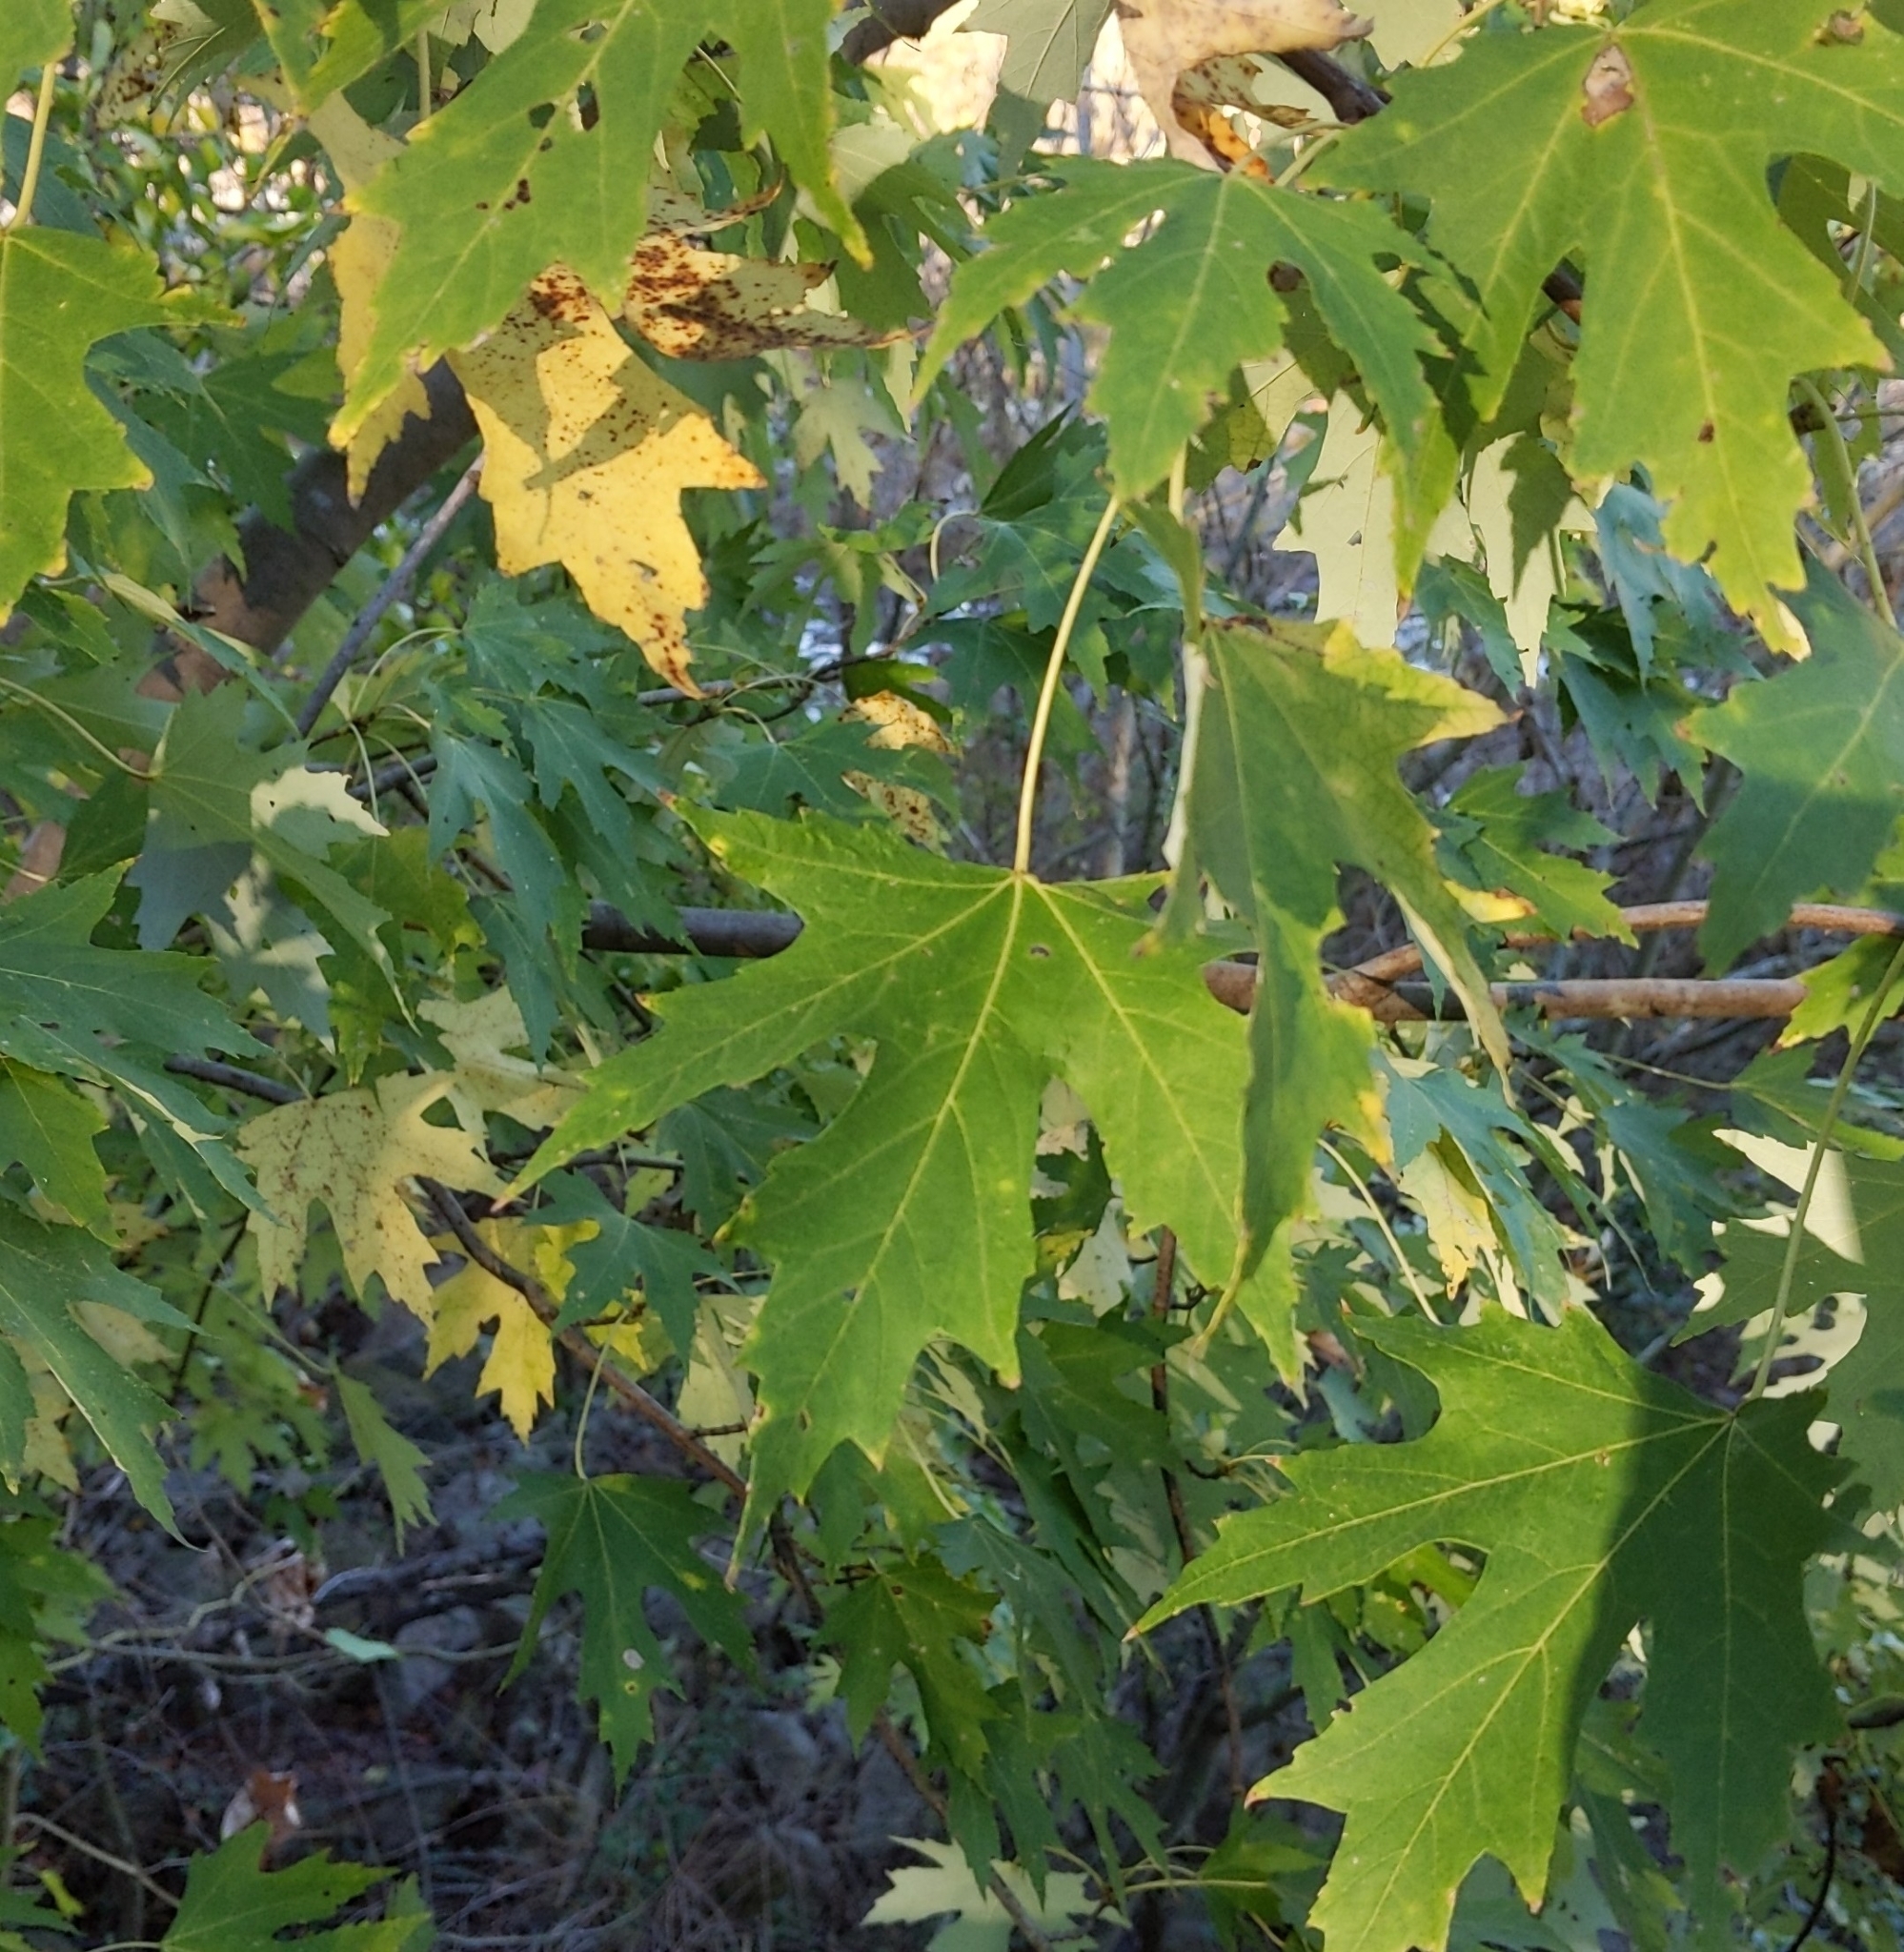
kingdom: Plantae
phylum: Tracheophyta
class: Magnoliopsida
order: Sapindales
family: Sapindaceae
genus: Acer
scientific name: Acer saccharinum
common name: Silver maple
